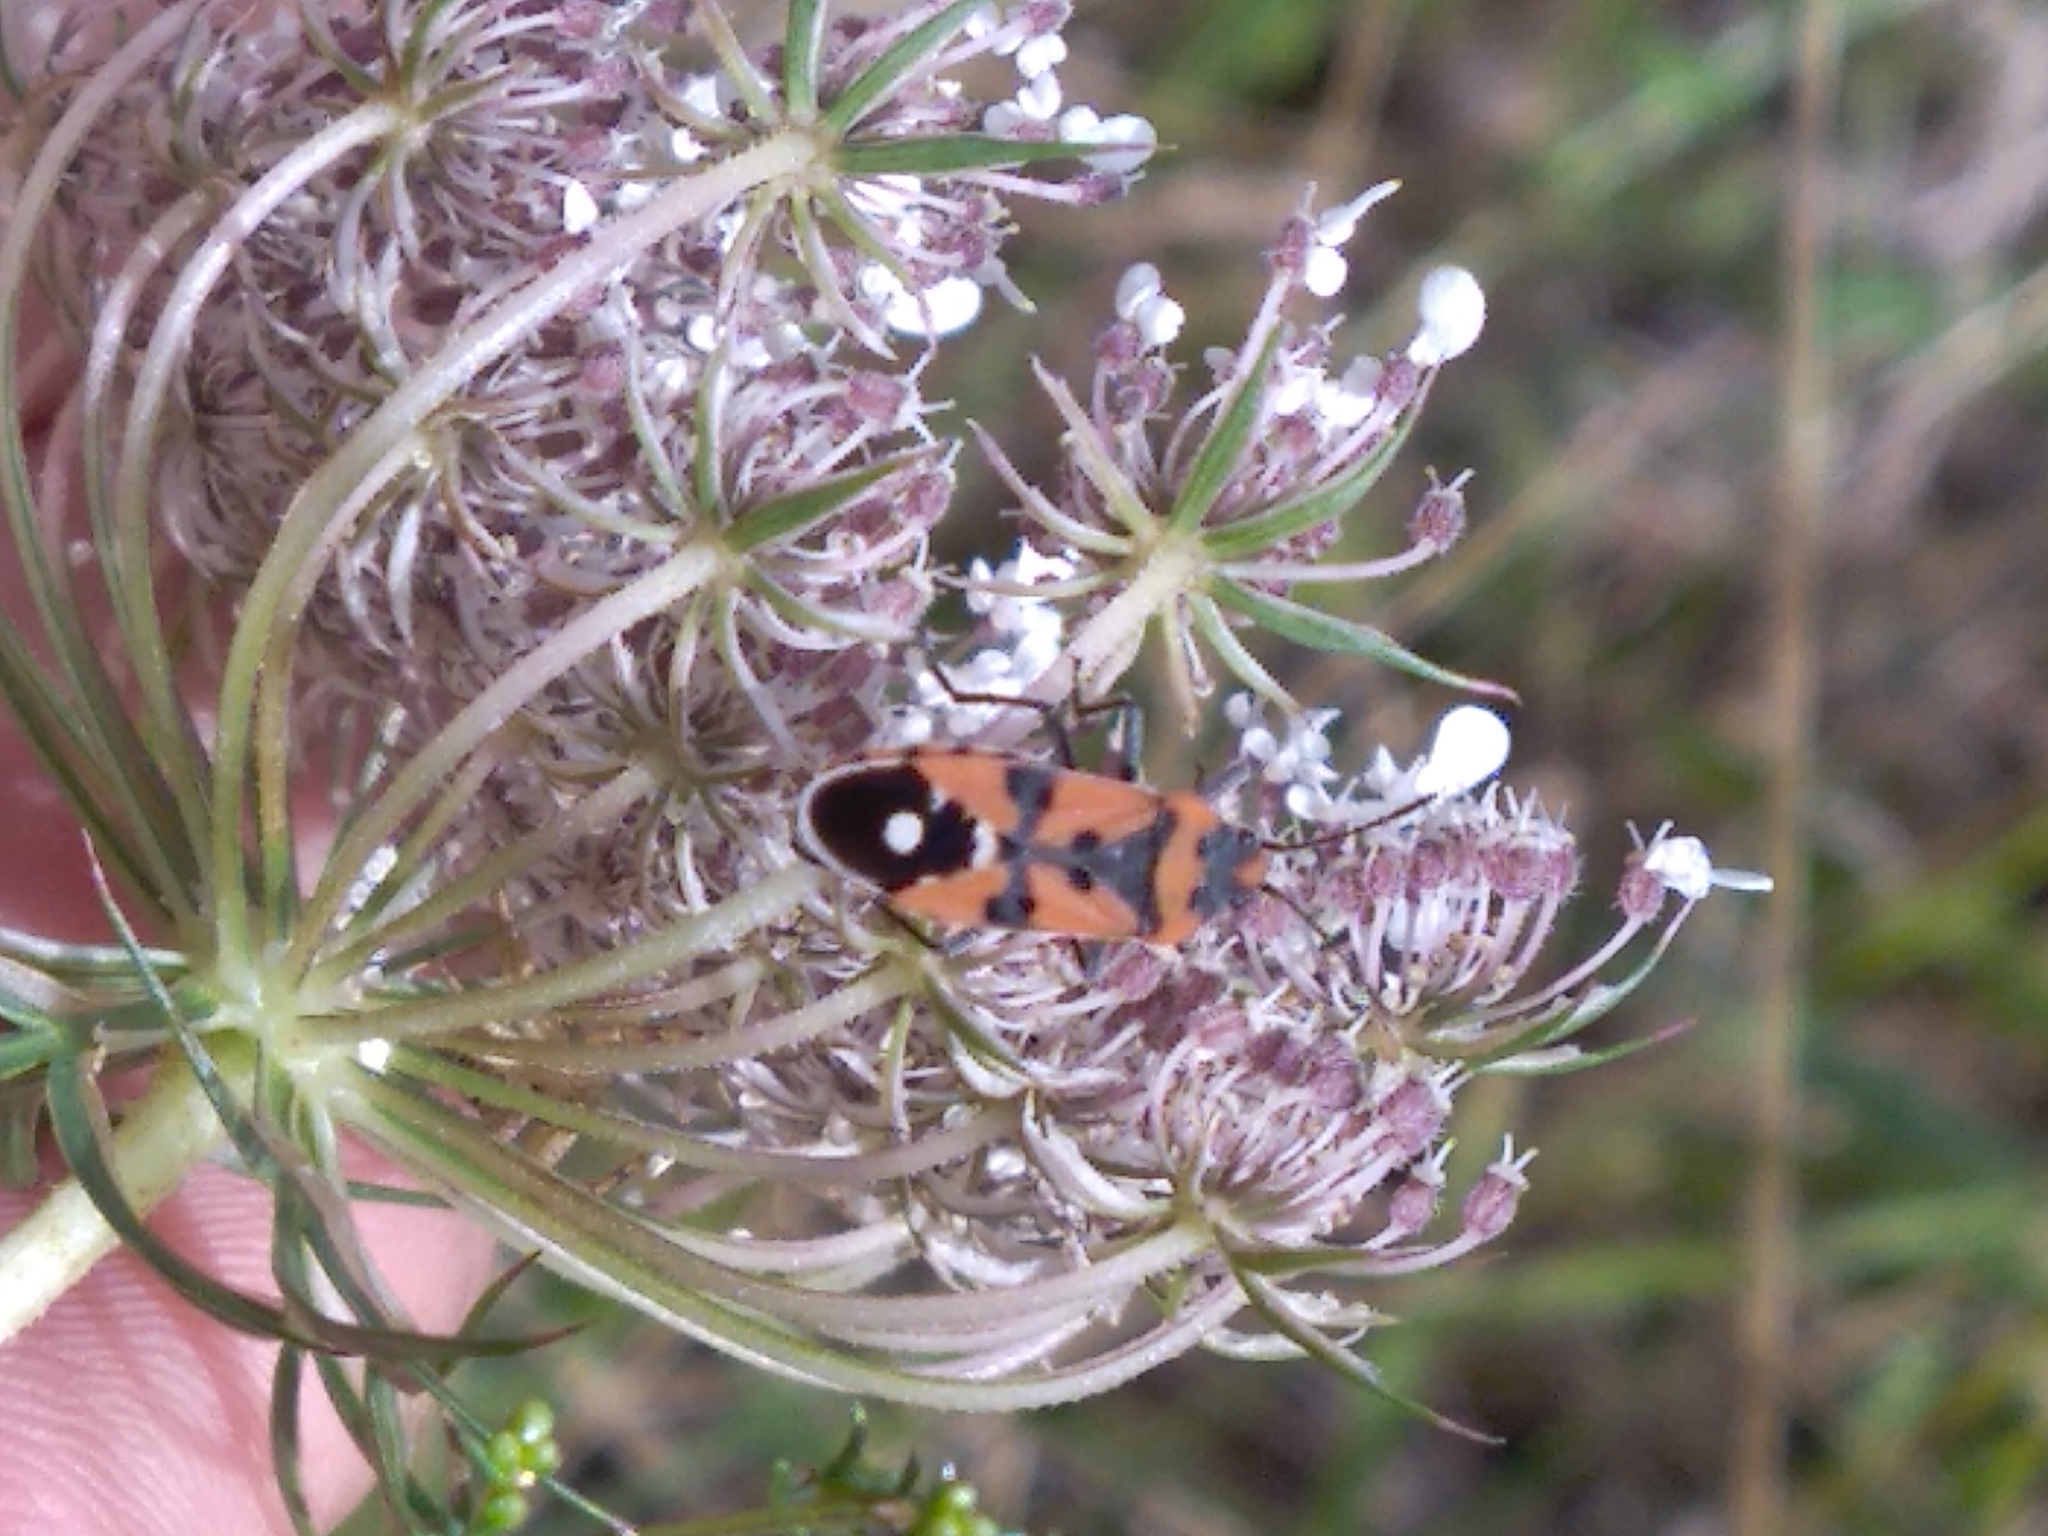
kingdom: Animalia
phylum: Arthropoda
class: Insecta
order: Hemiptera
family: Lygaeidae
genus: Lygaeus
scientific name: Lygaeus equestris
